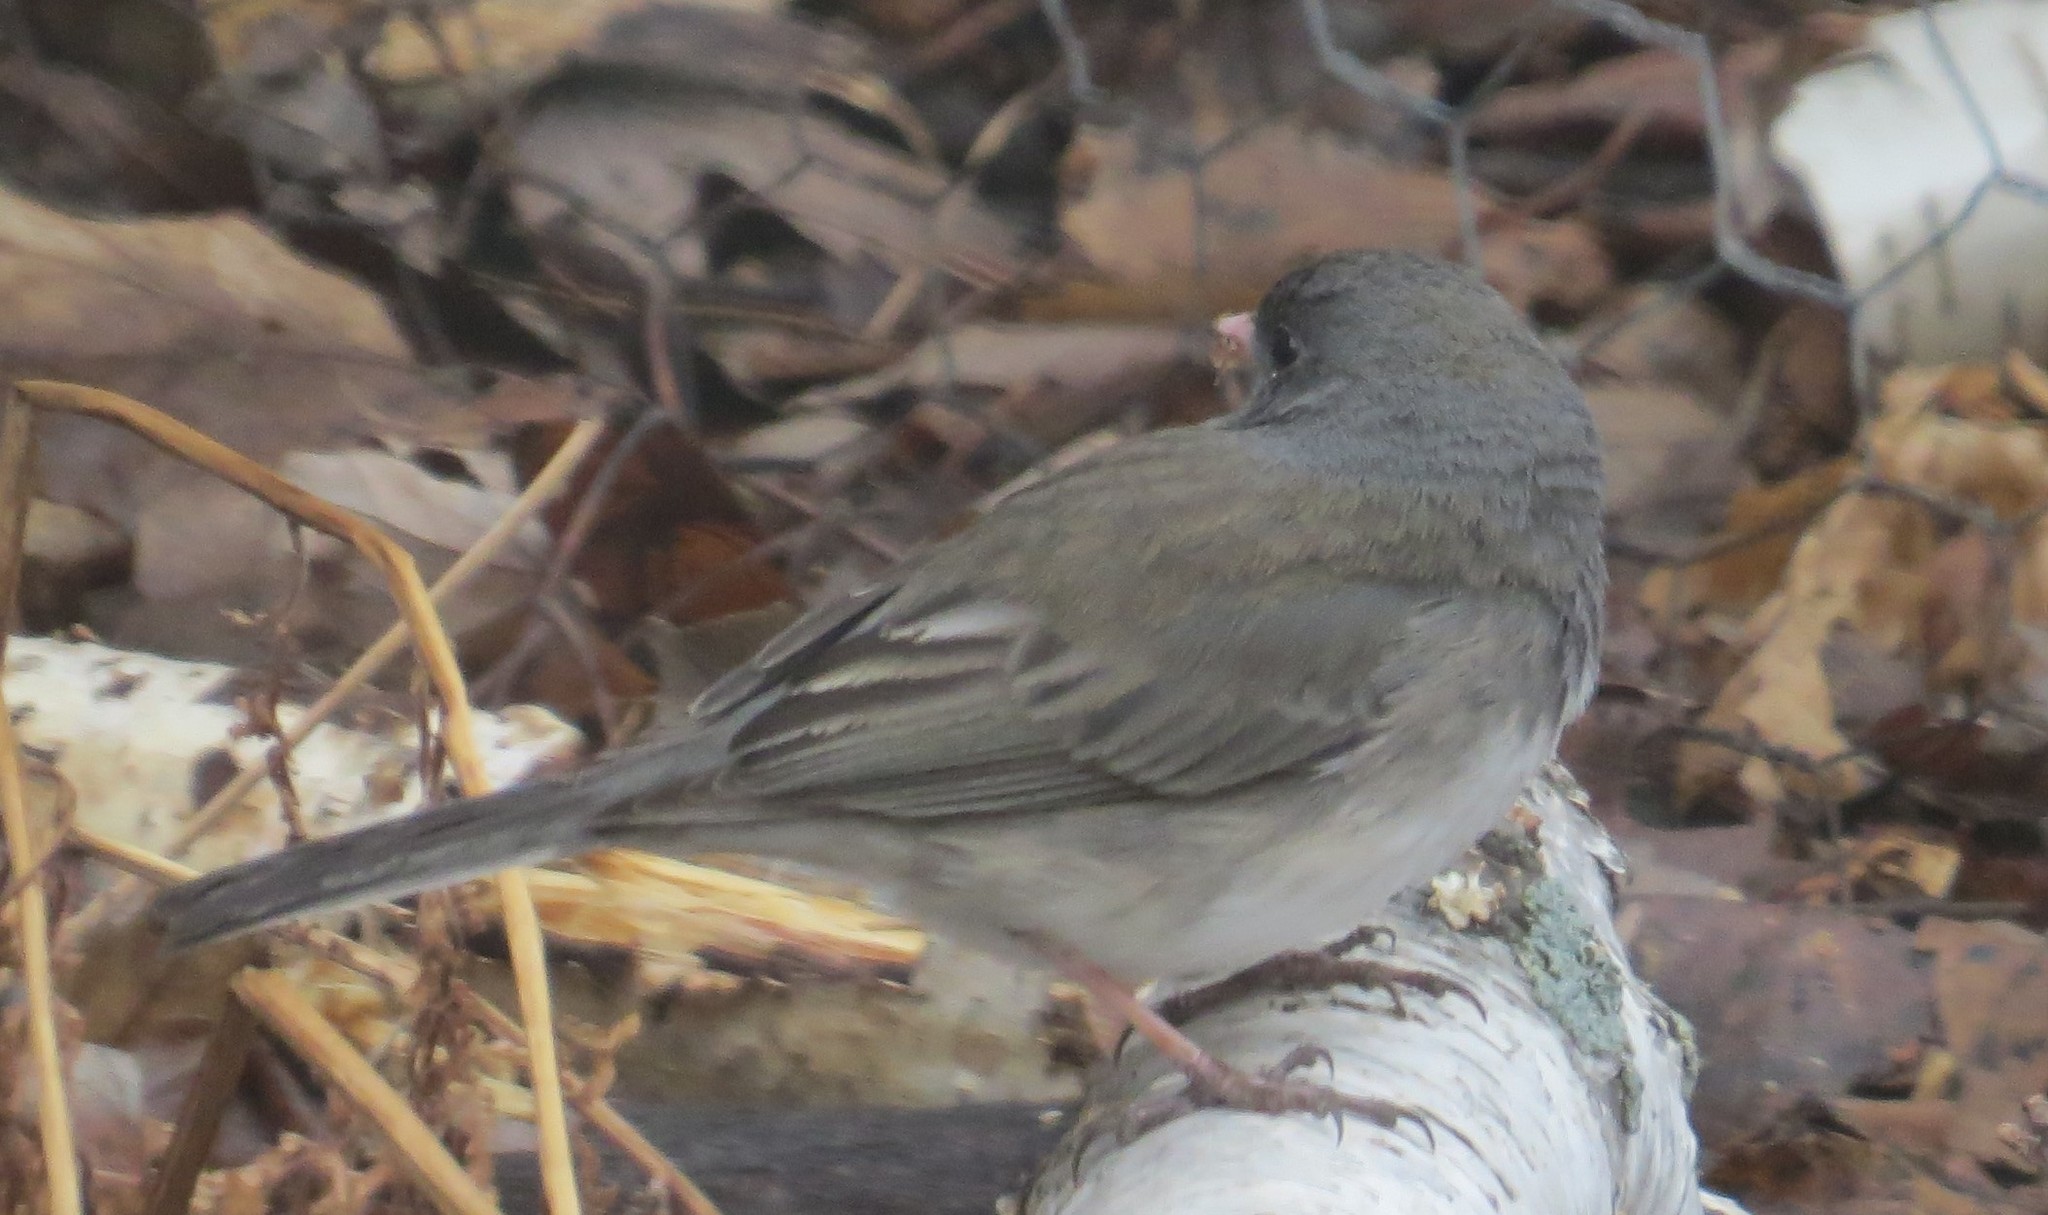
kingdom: Animalia
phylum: Chordata
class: Aves
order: Passeriformes
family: Passerellidae
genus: Junco
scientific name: Junco hyemalis
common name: Dark-eyed junco
